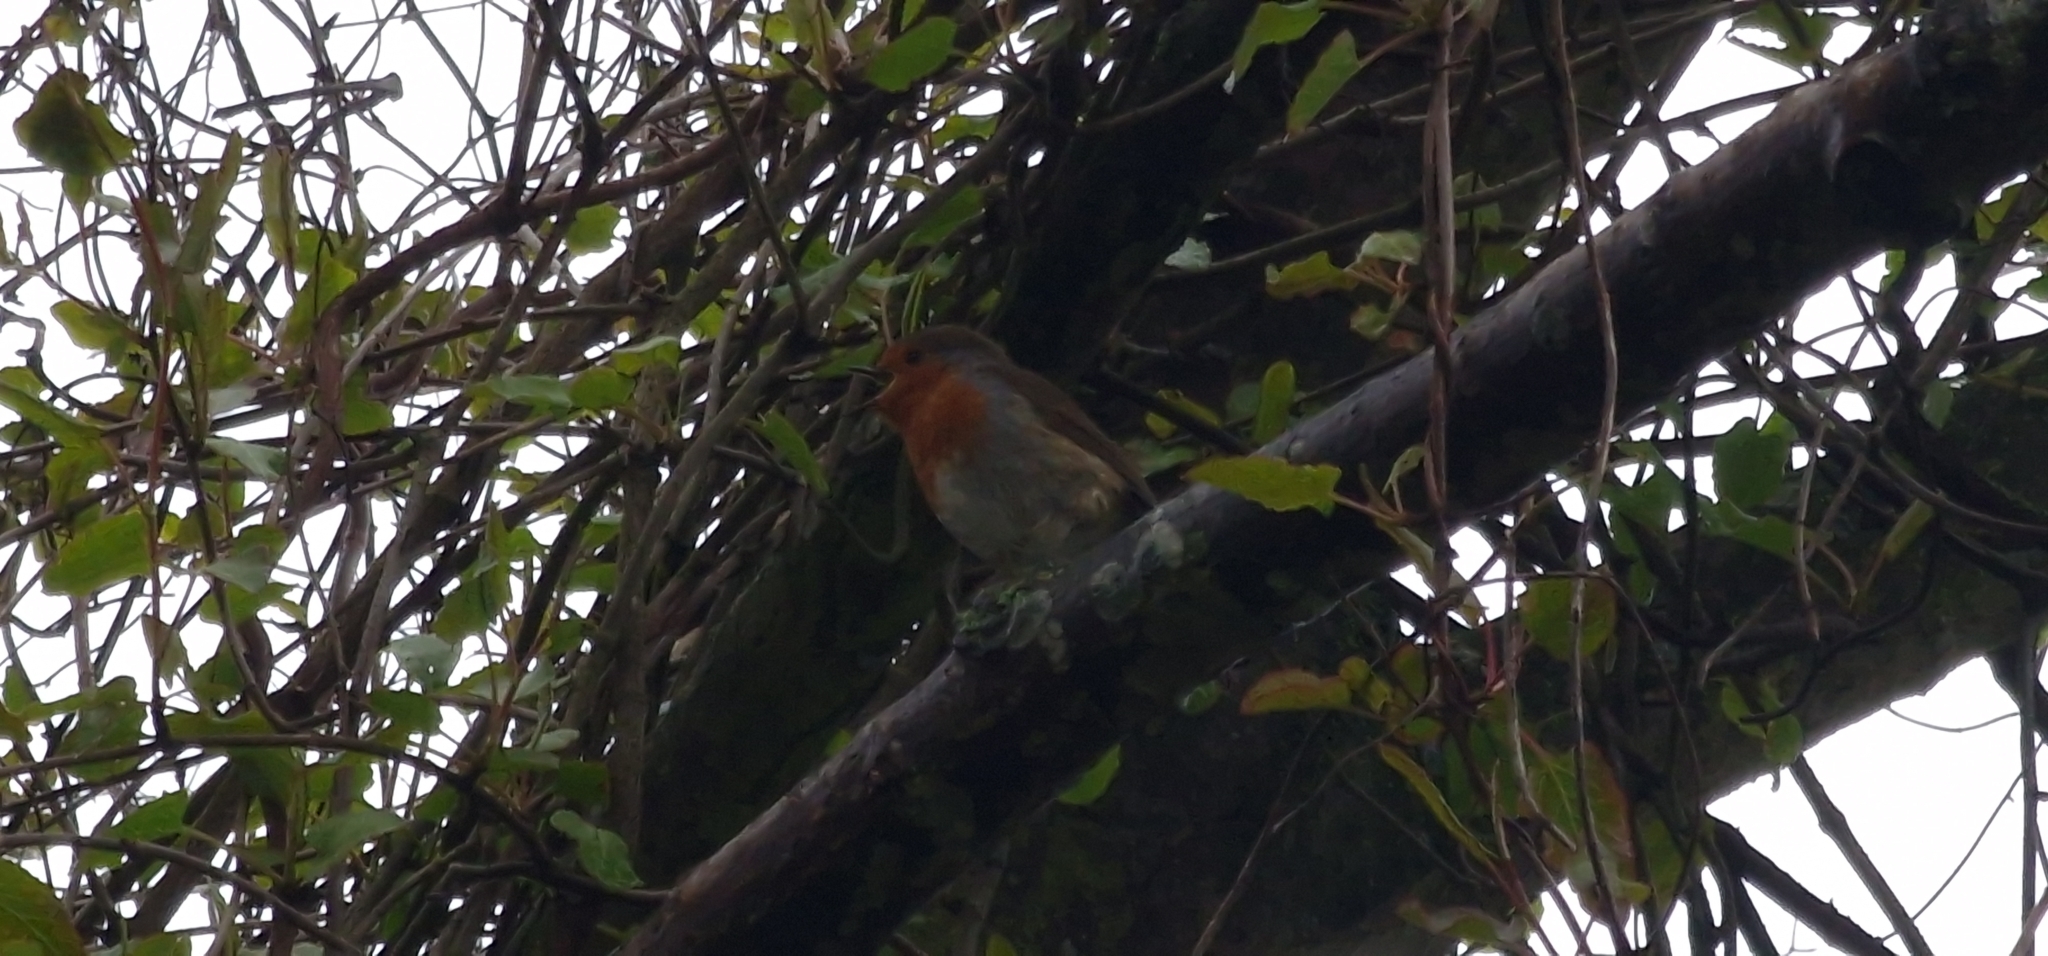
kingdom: Animalia
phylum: Chordata
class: Aves
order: Passeriformes
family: Muscicapidae
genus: Erithacus
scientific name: Erithacus rubecula
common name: European robin
